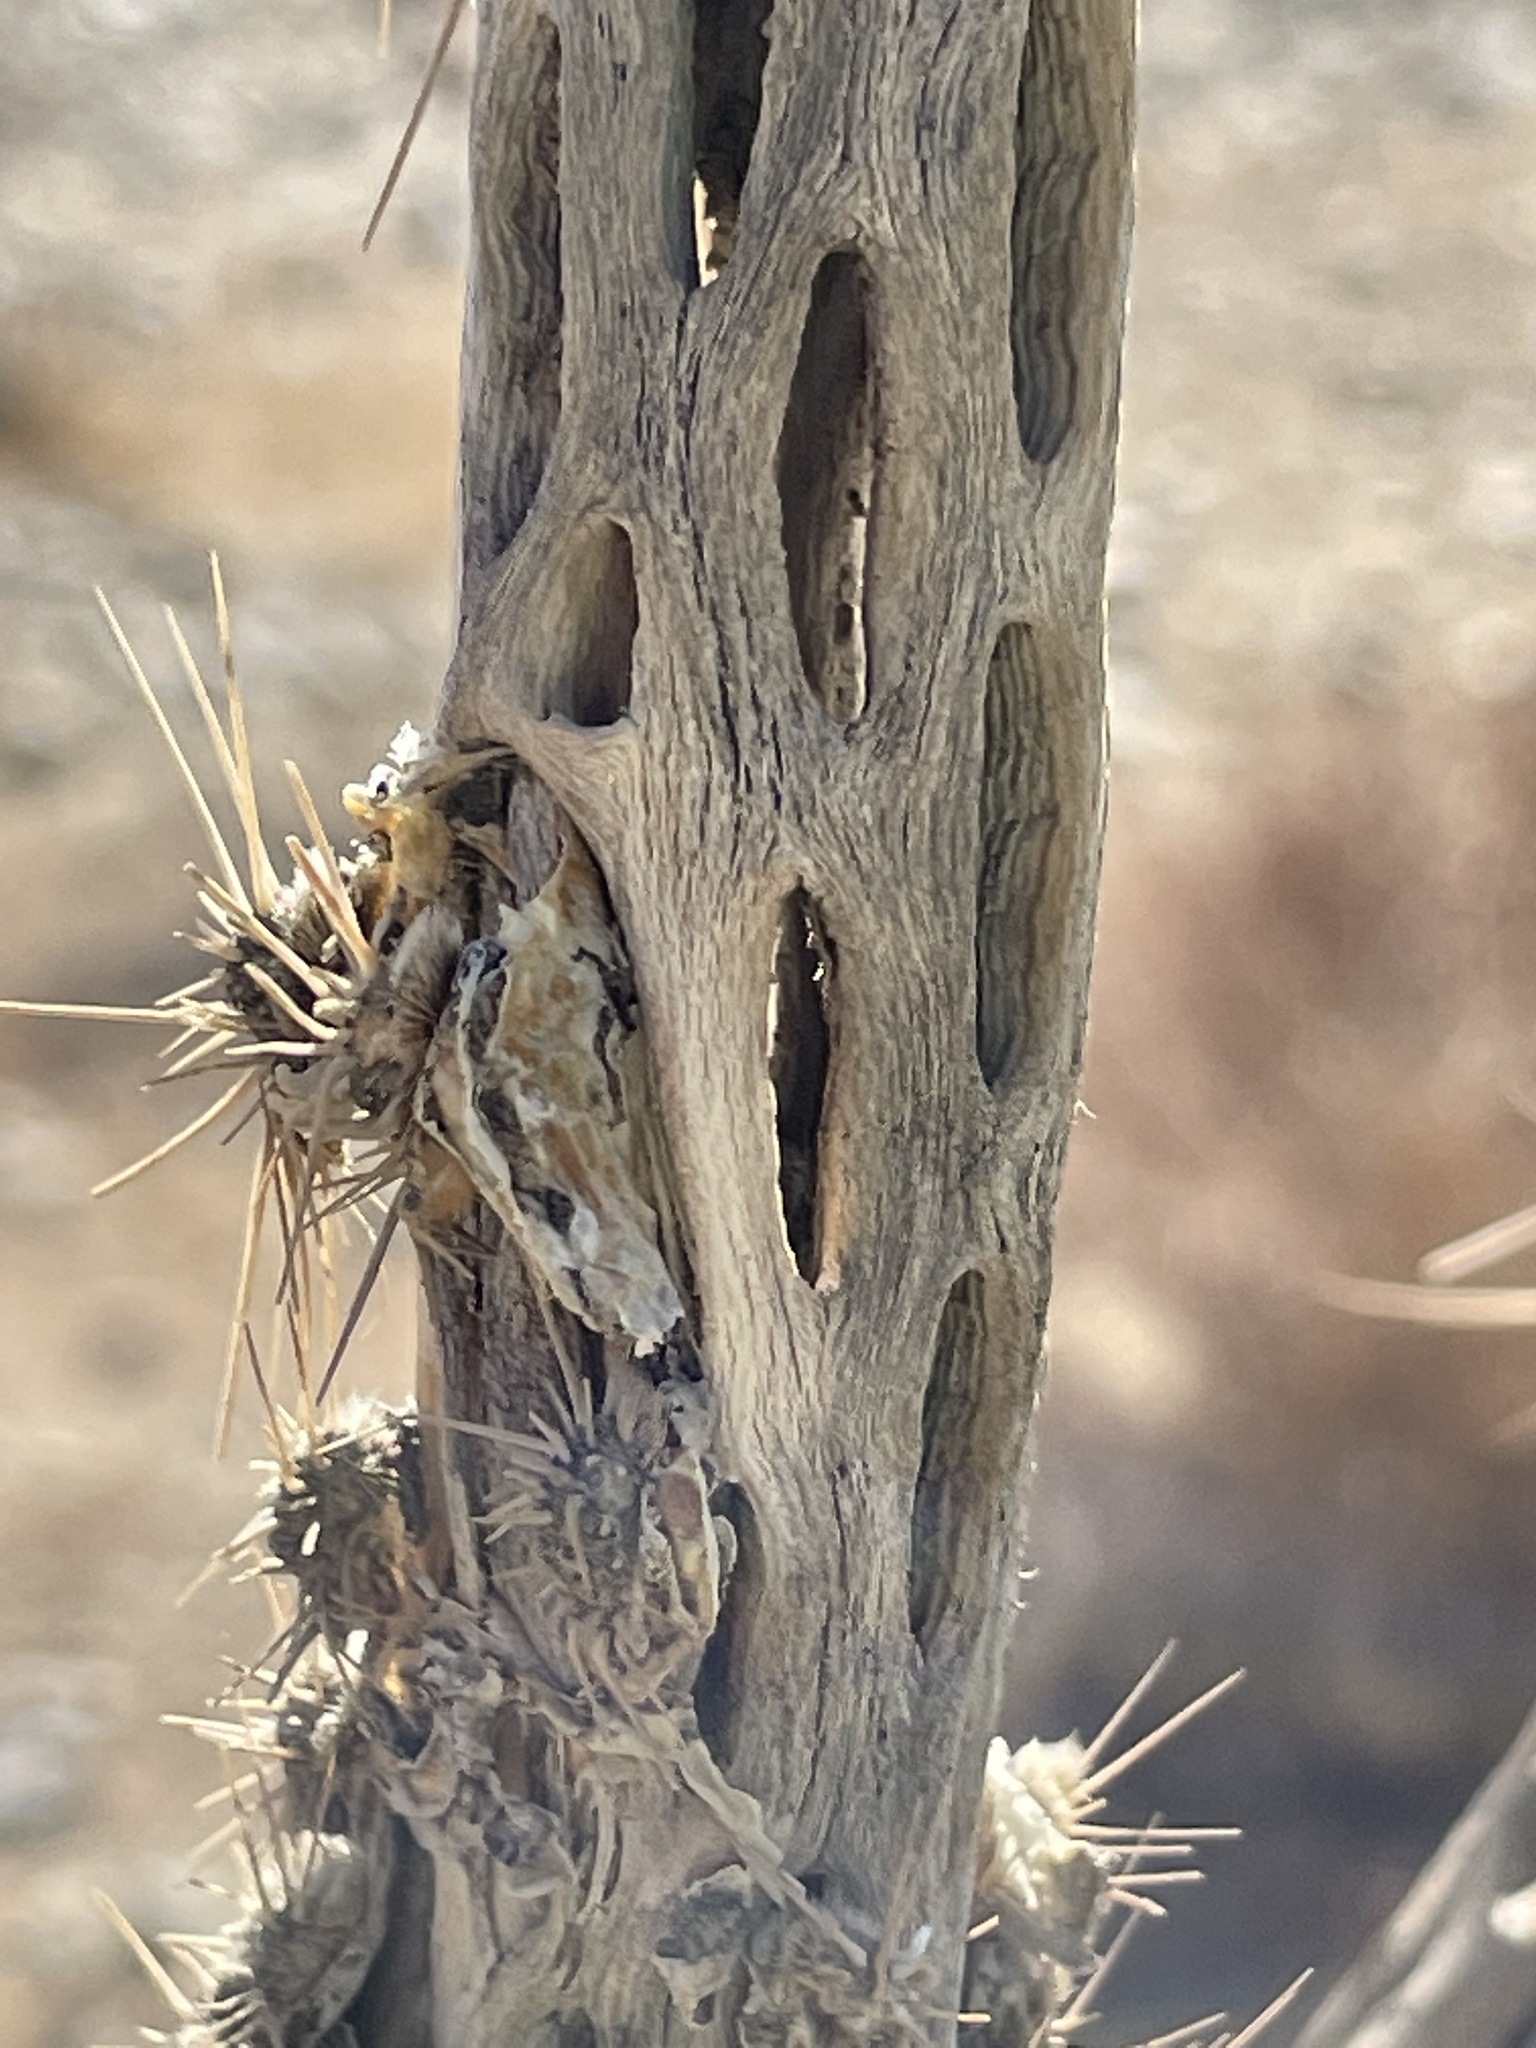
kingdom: Plantae
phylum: Tracheophyta
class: Magnoliopsida
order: Caryophyllales
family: Cactaceae
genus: Cylindropuntia
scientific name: Cylindropuntia echinocarpa
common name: Ground cholla
